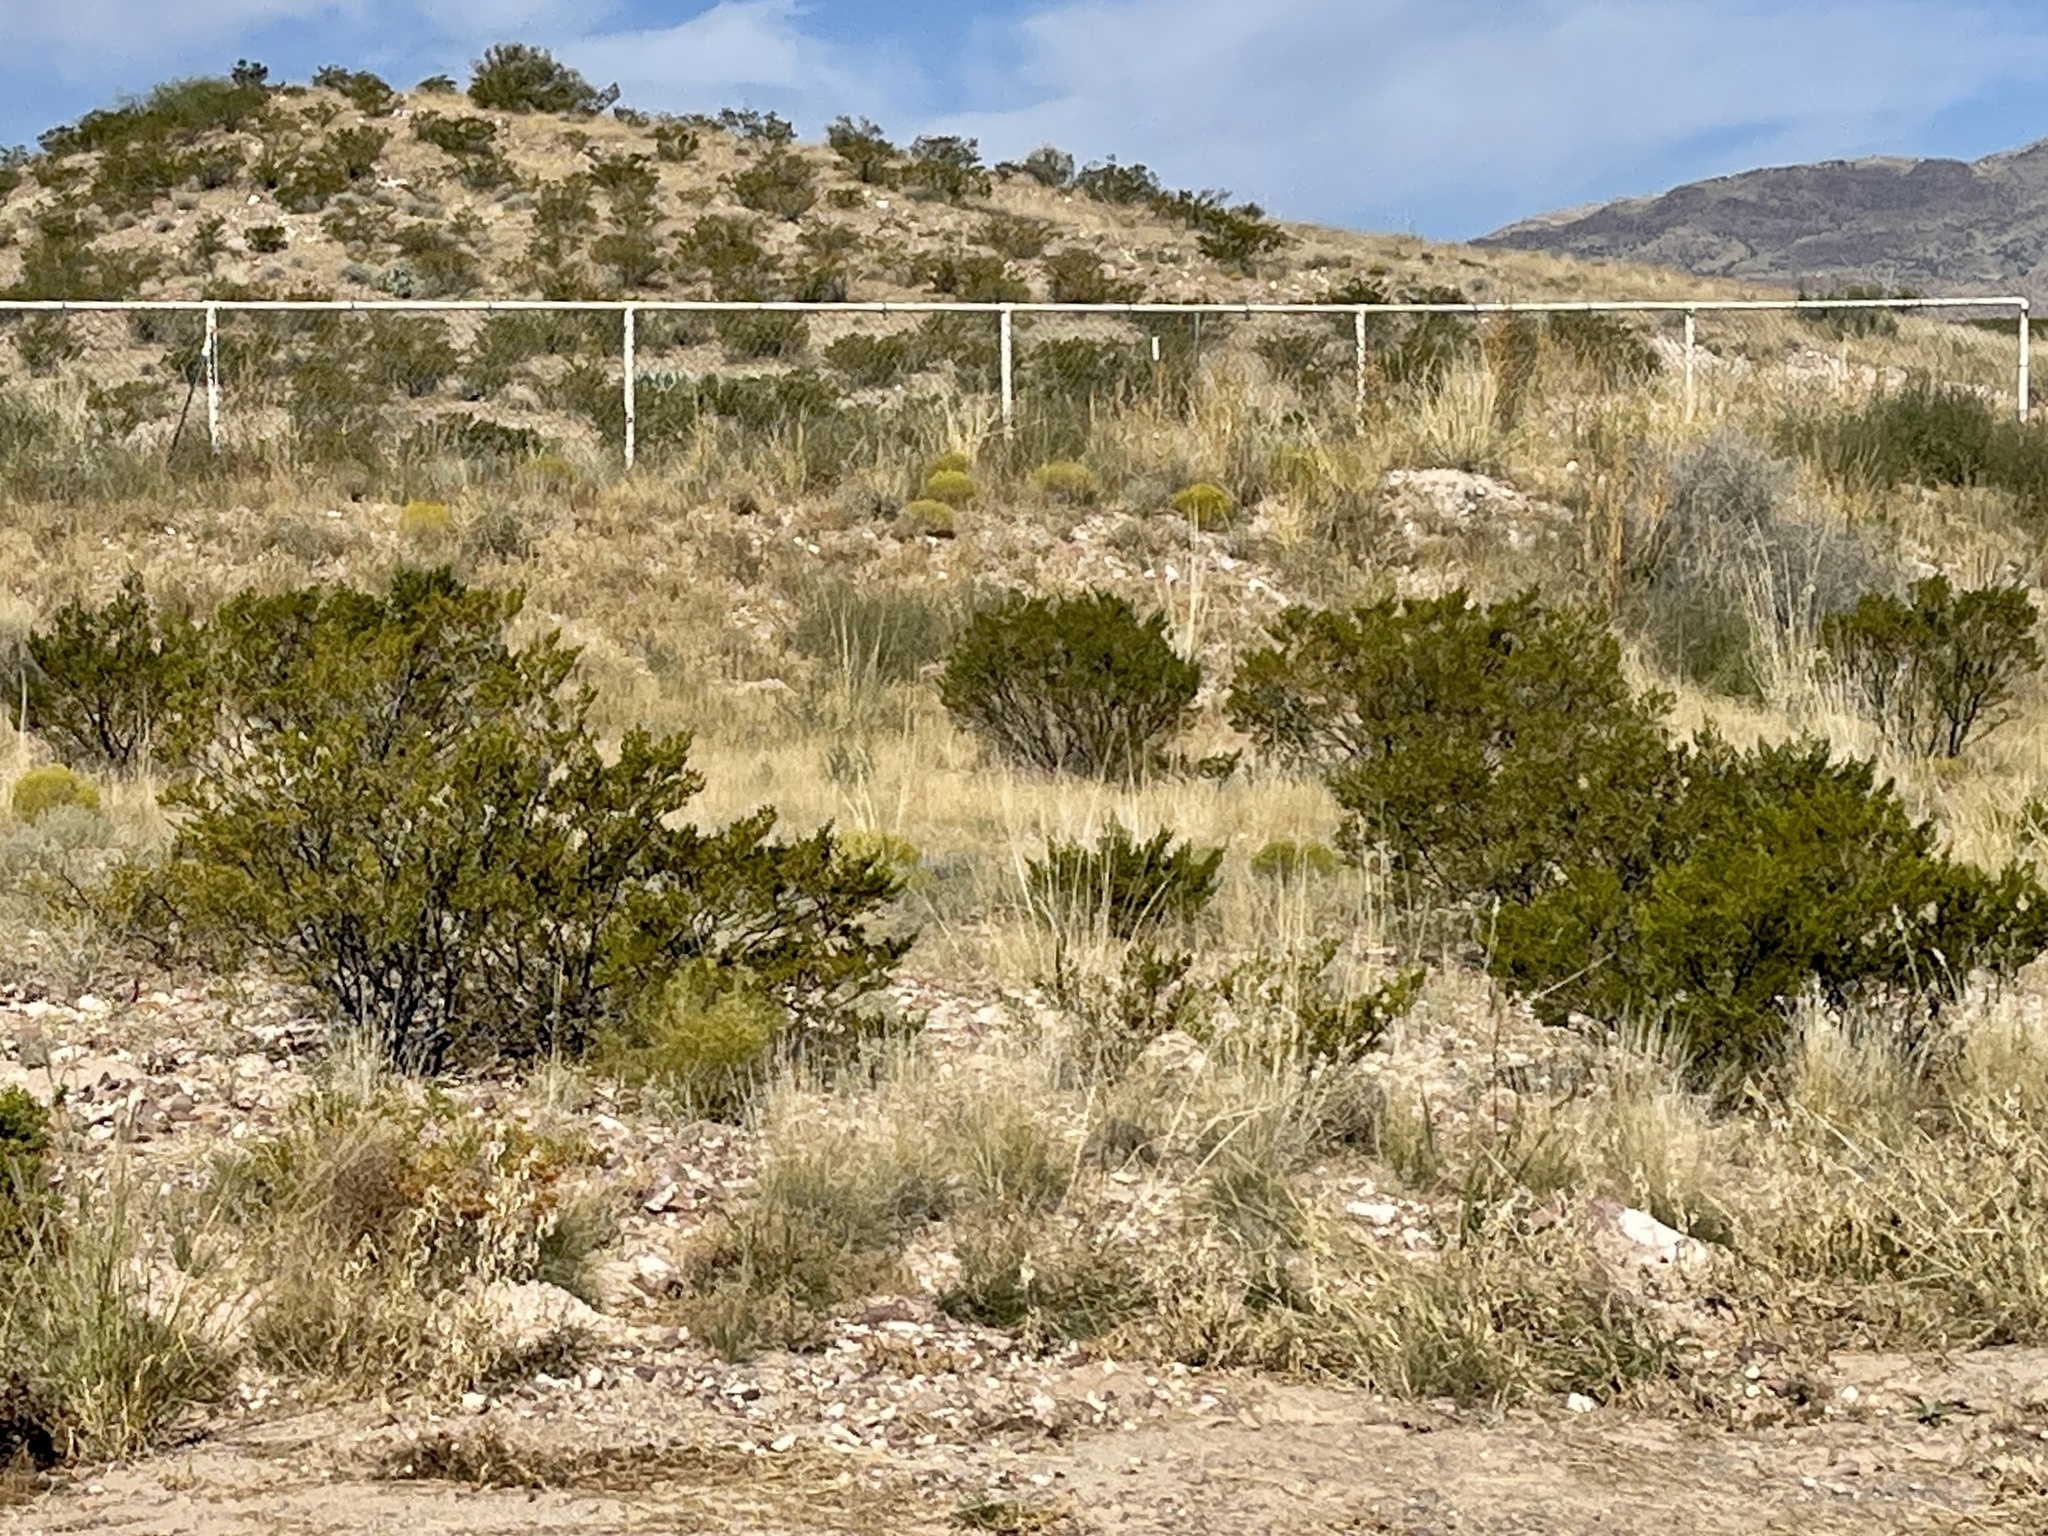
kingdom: Plantae
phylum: Tracheophyta
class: Magnoliopsida
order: Zygophyllales
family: Zygophyllaceae
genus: Larrea
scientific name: Larrea tridentata
